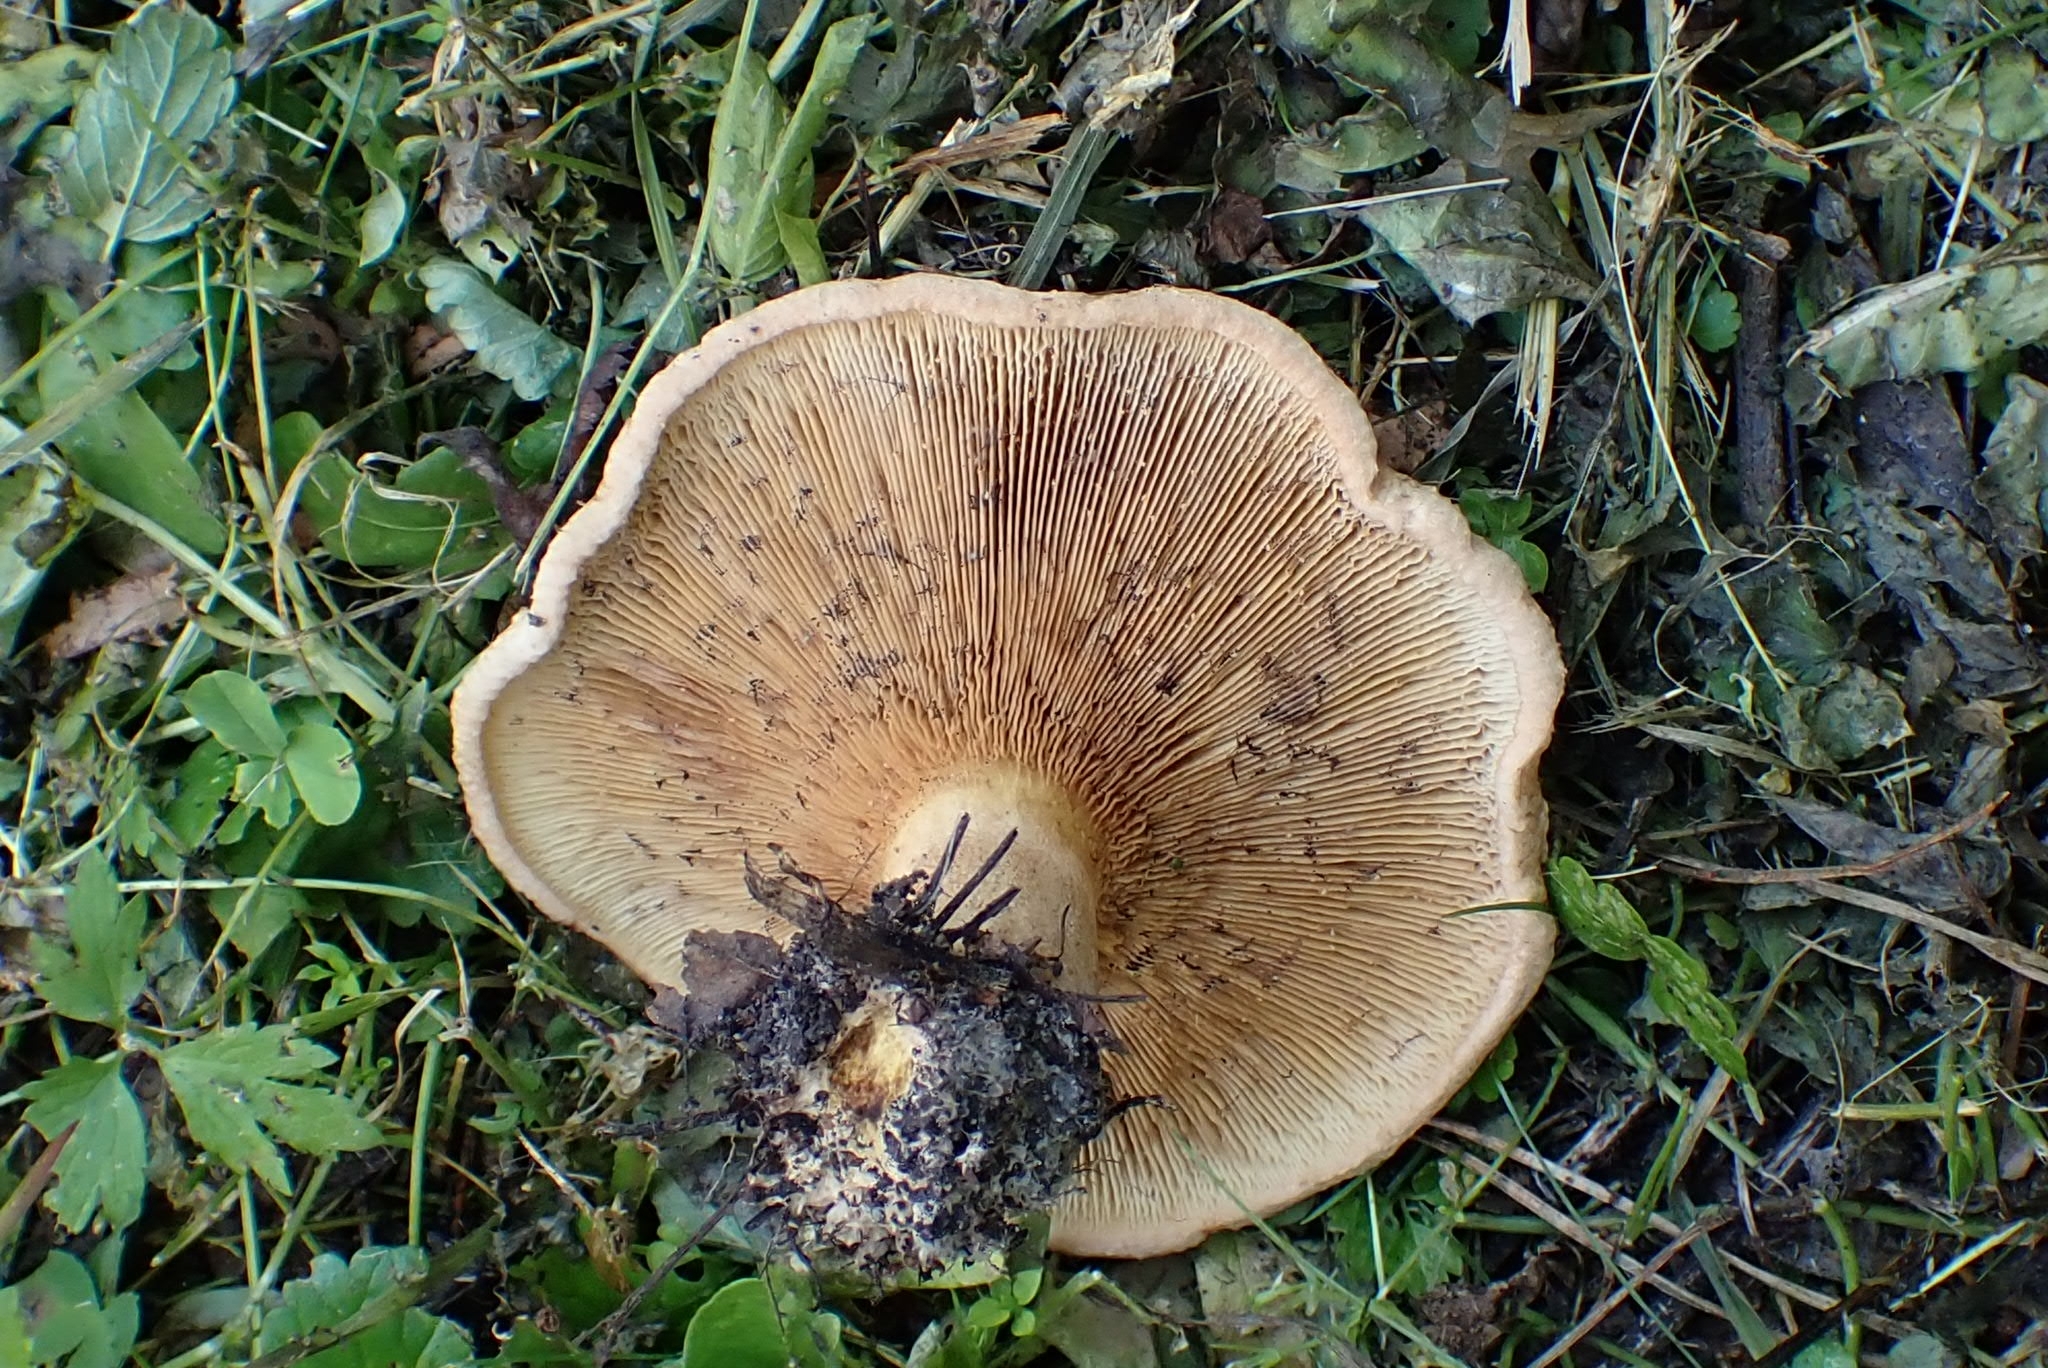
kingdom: Fungi
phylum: Basidiomycota
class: Agaricomycetes
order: Boletales
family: Paxillaceae
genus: Paxillus
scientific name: Paxillus involutus
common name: Brown roll rim
